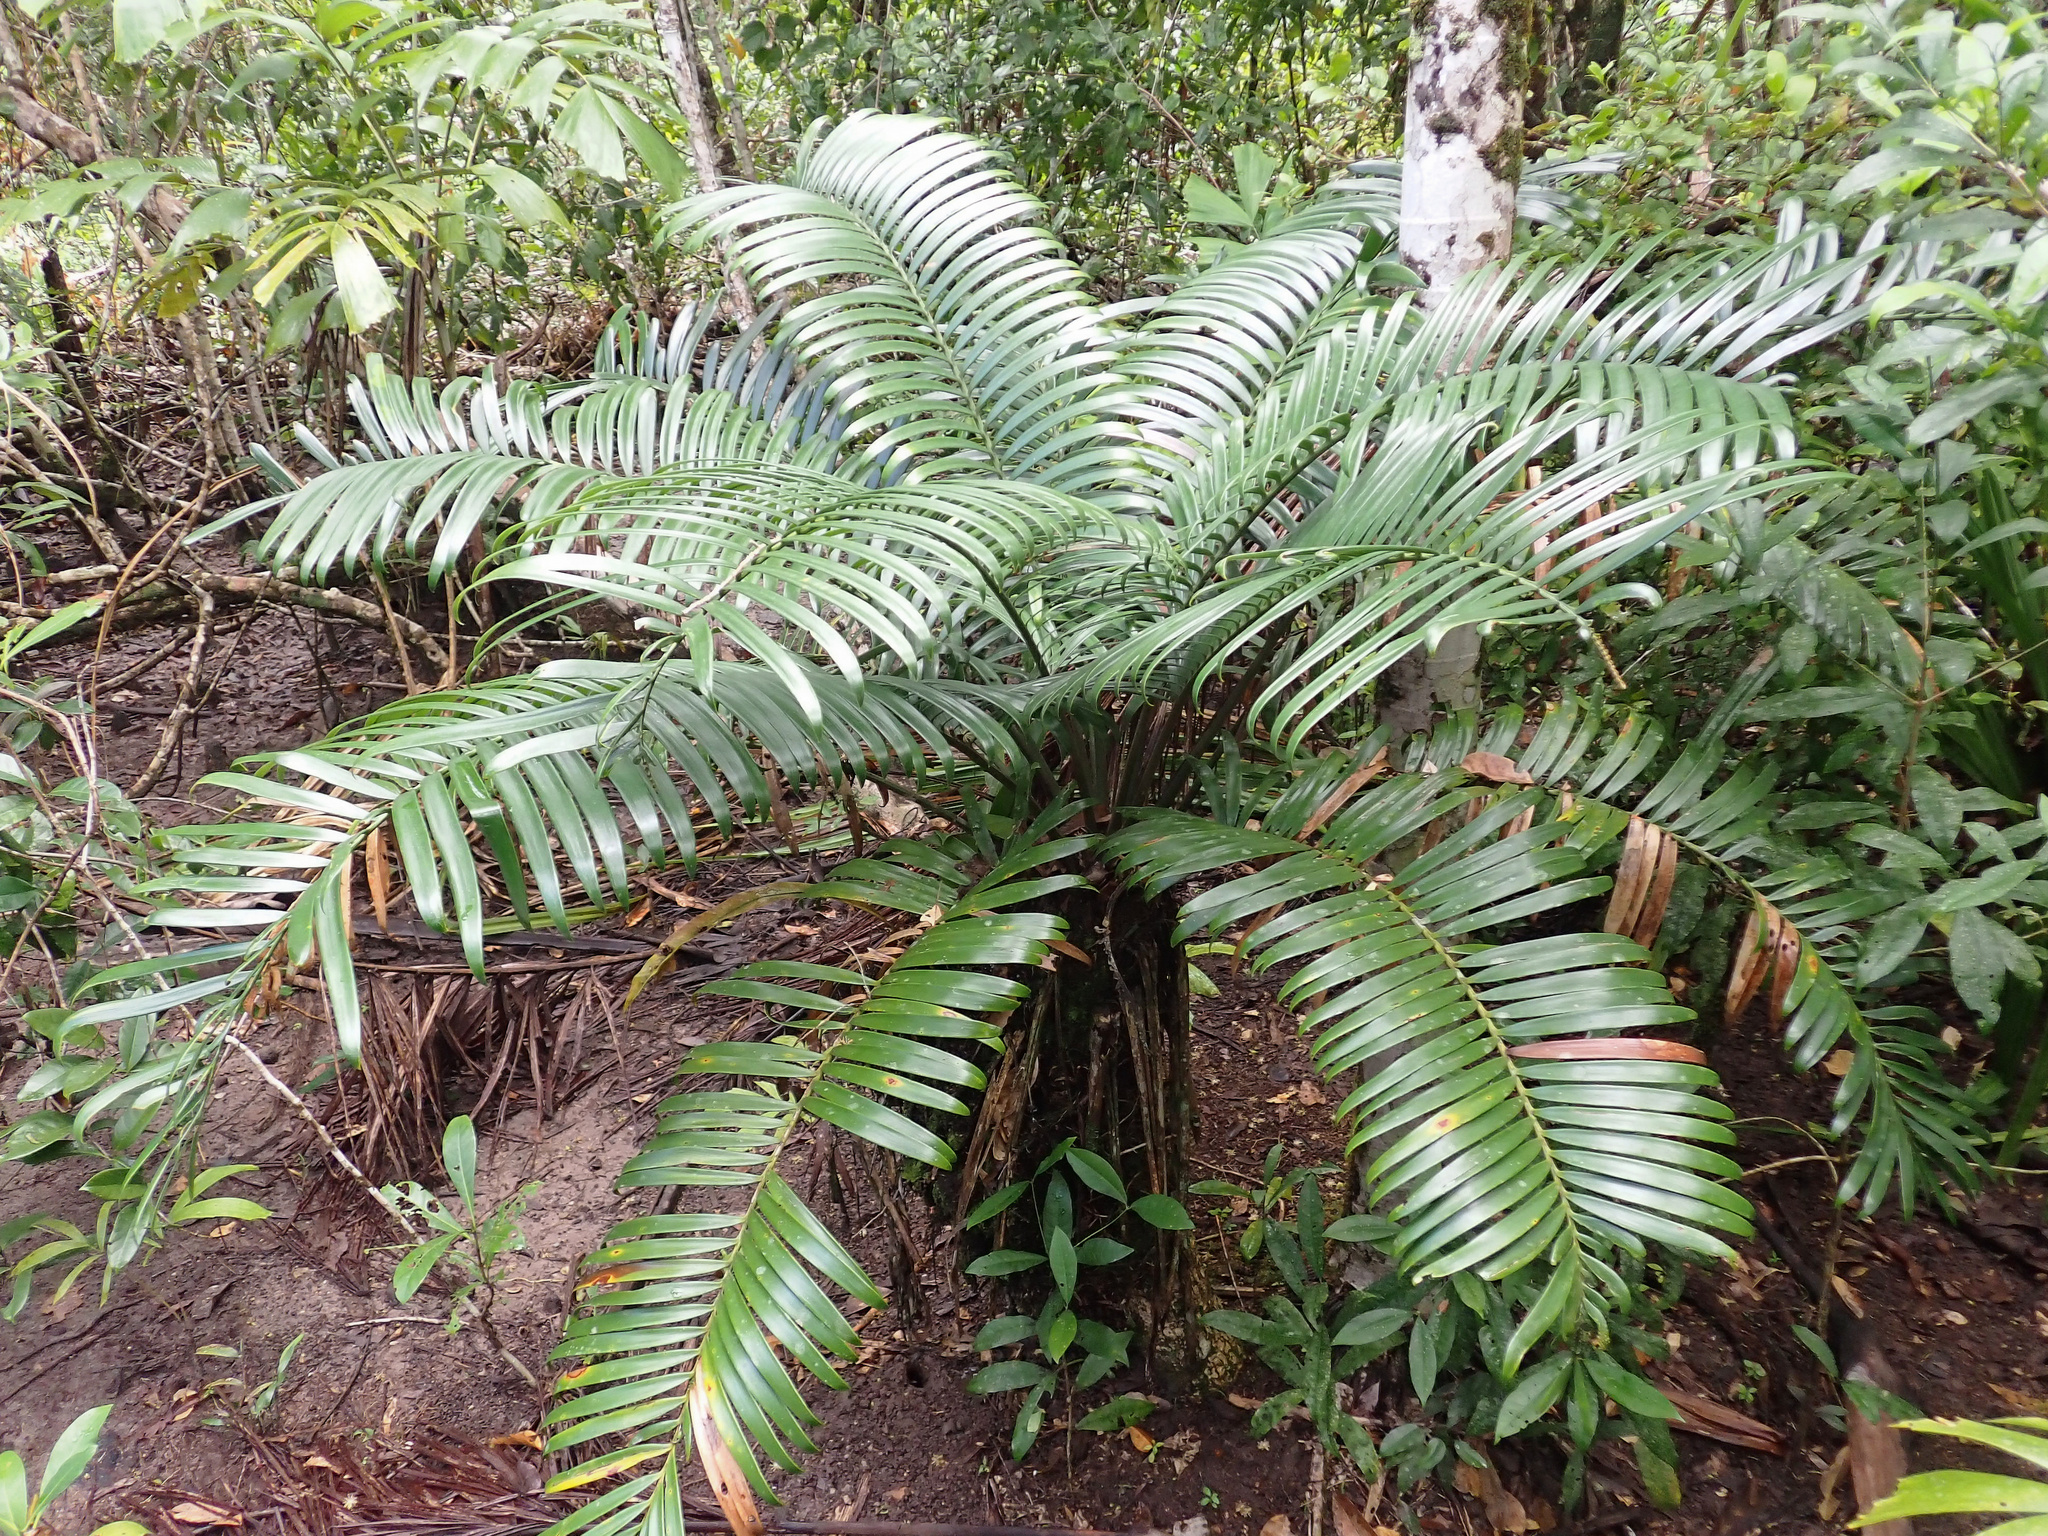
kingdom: Plantae
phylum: Tracheophyta
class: Cycadopsida
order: Cycadales
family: Zamiaceae
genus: Lepidozamia
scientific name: Lepidozamia hopei
